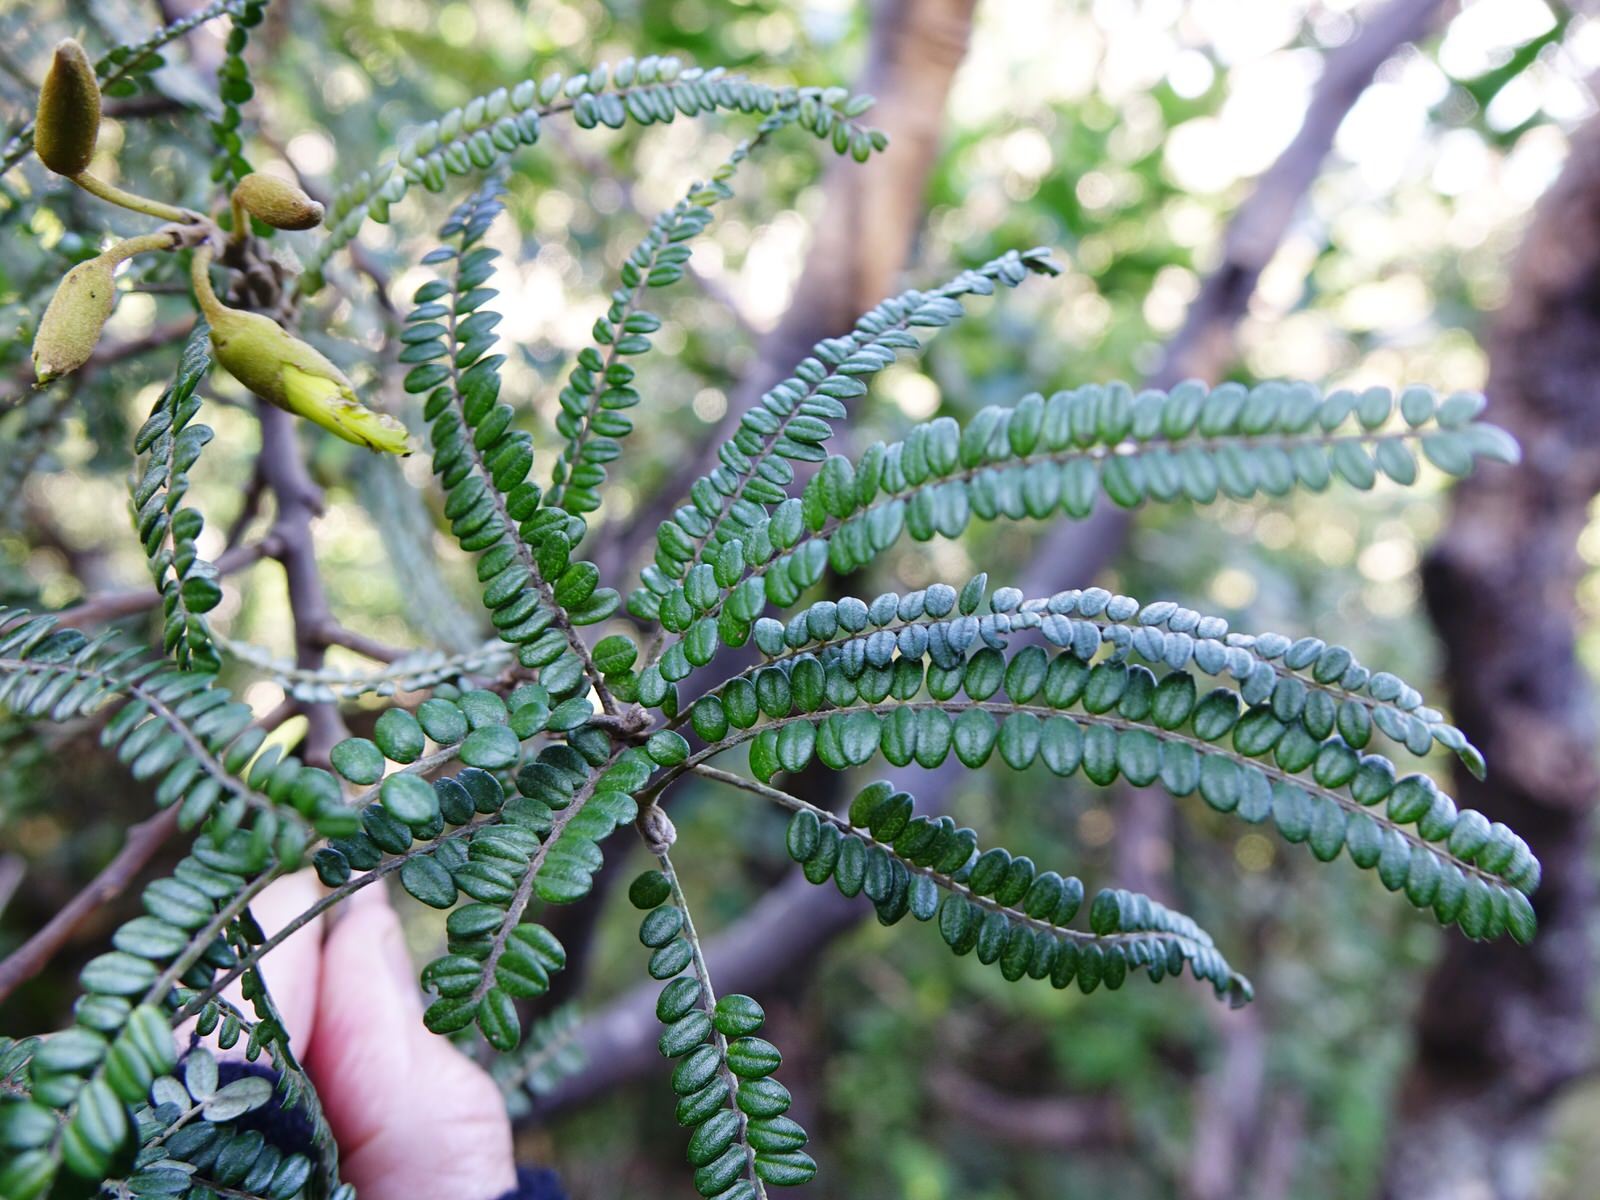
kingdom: Plantae
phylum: Tracheophyta
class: Magnoliopsida
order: Fabales
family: Fabaceae
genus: Sophora
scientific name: Sophora fulvida
